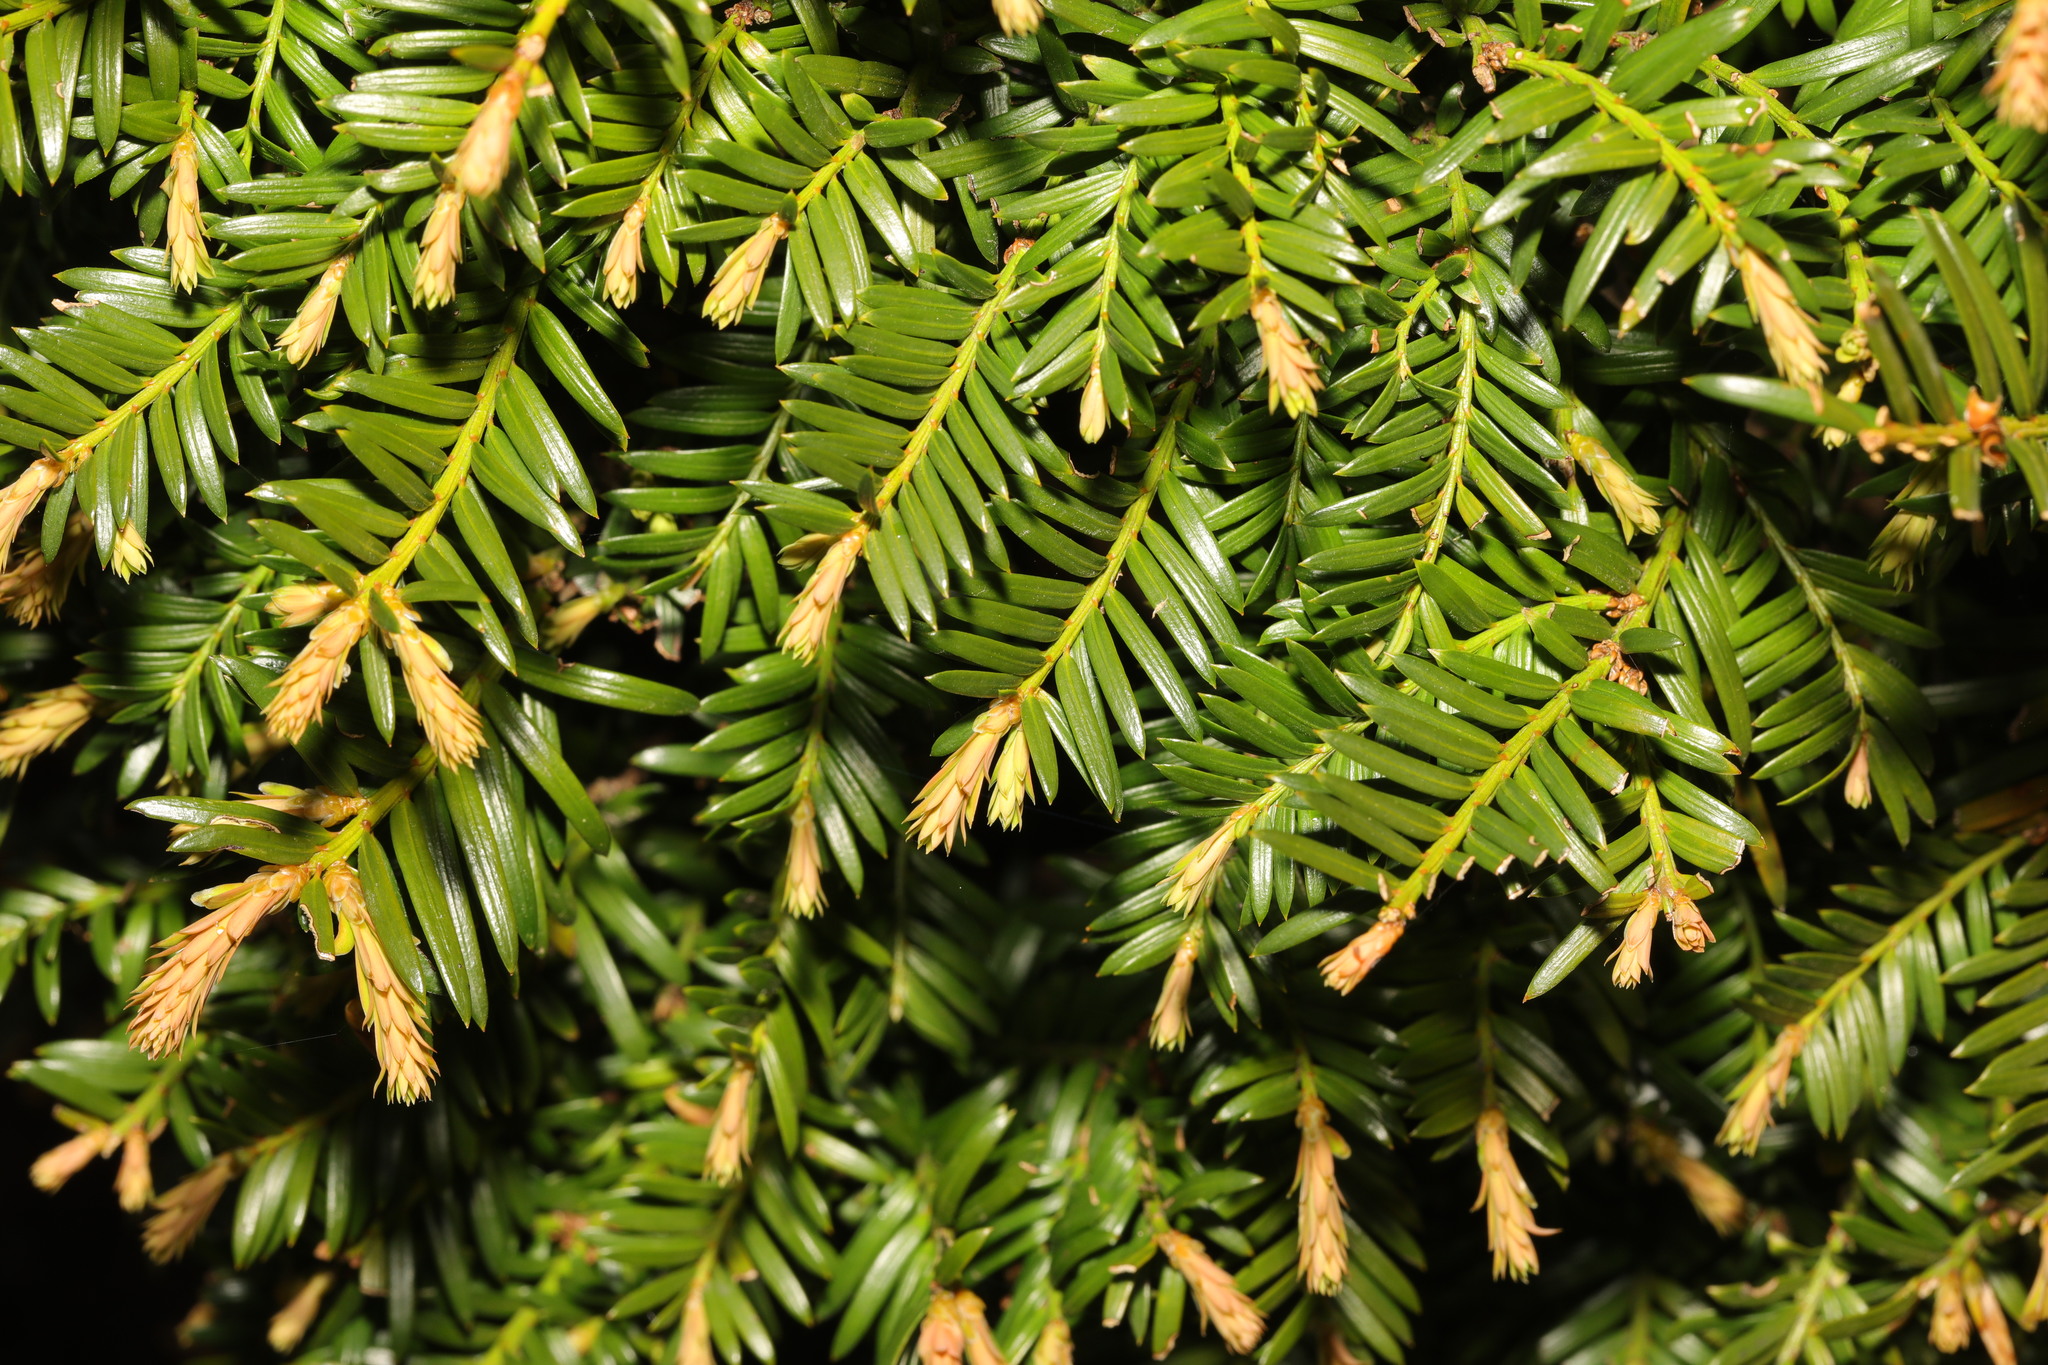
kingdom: Plantae
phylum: Tracheophyta
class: Pinopsida
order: Pinales
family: Taxaceae
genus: Taxus
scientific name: Taxus baccata
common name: Yew
